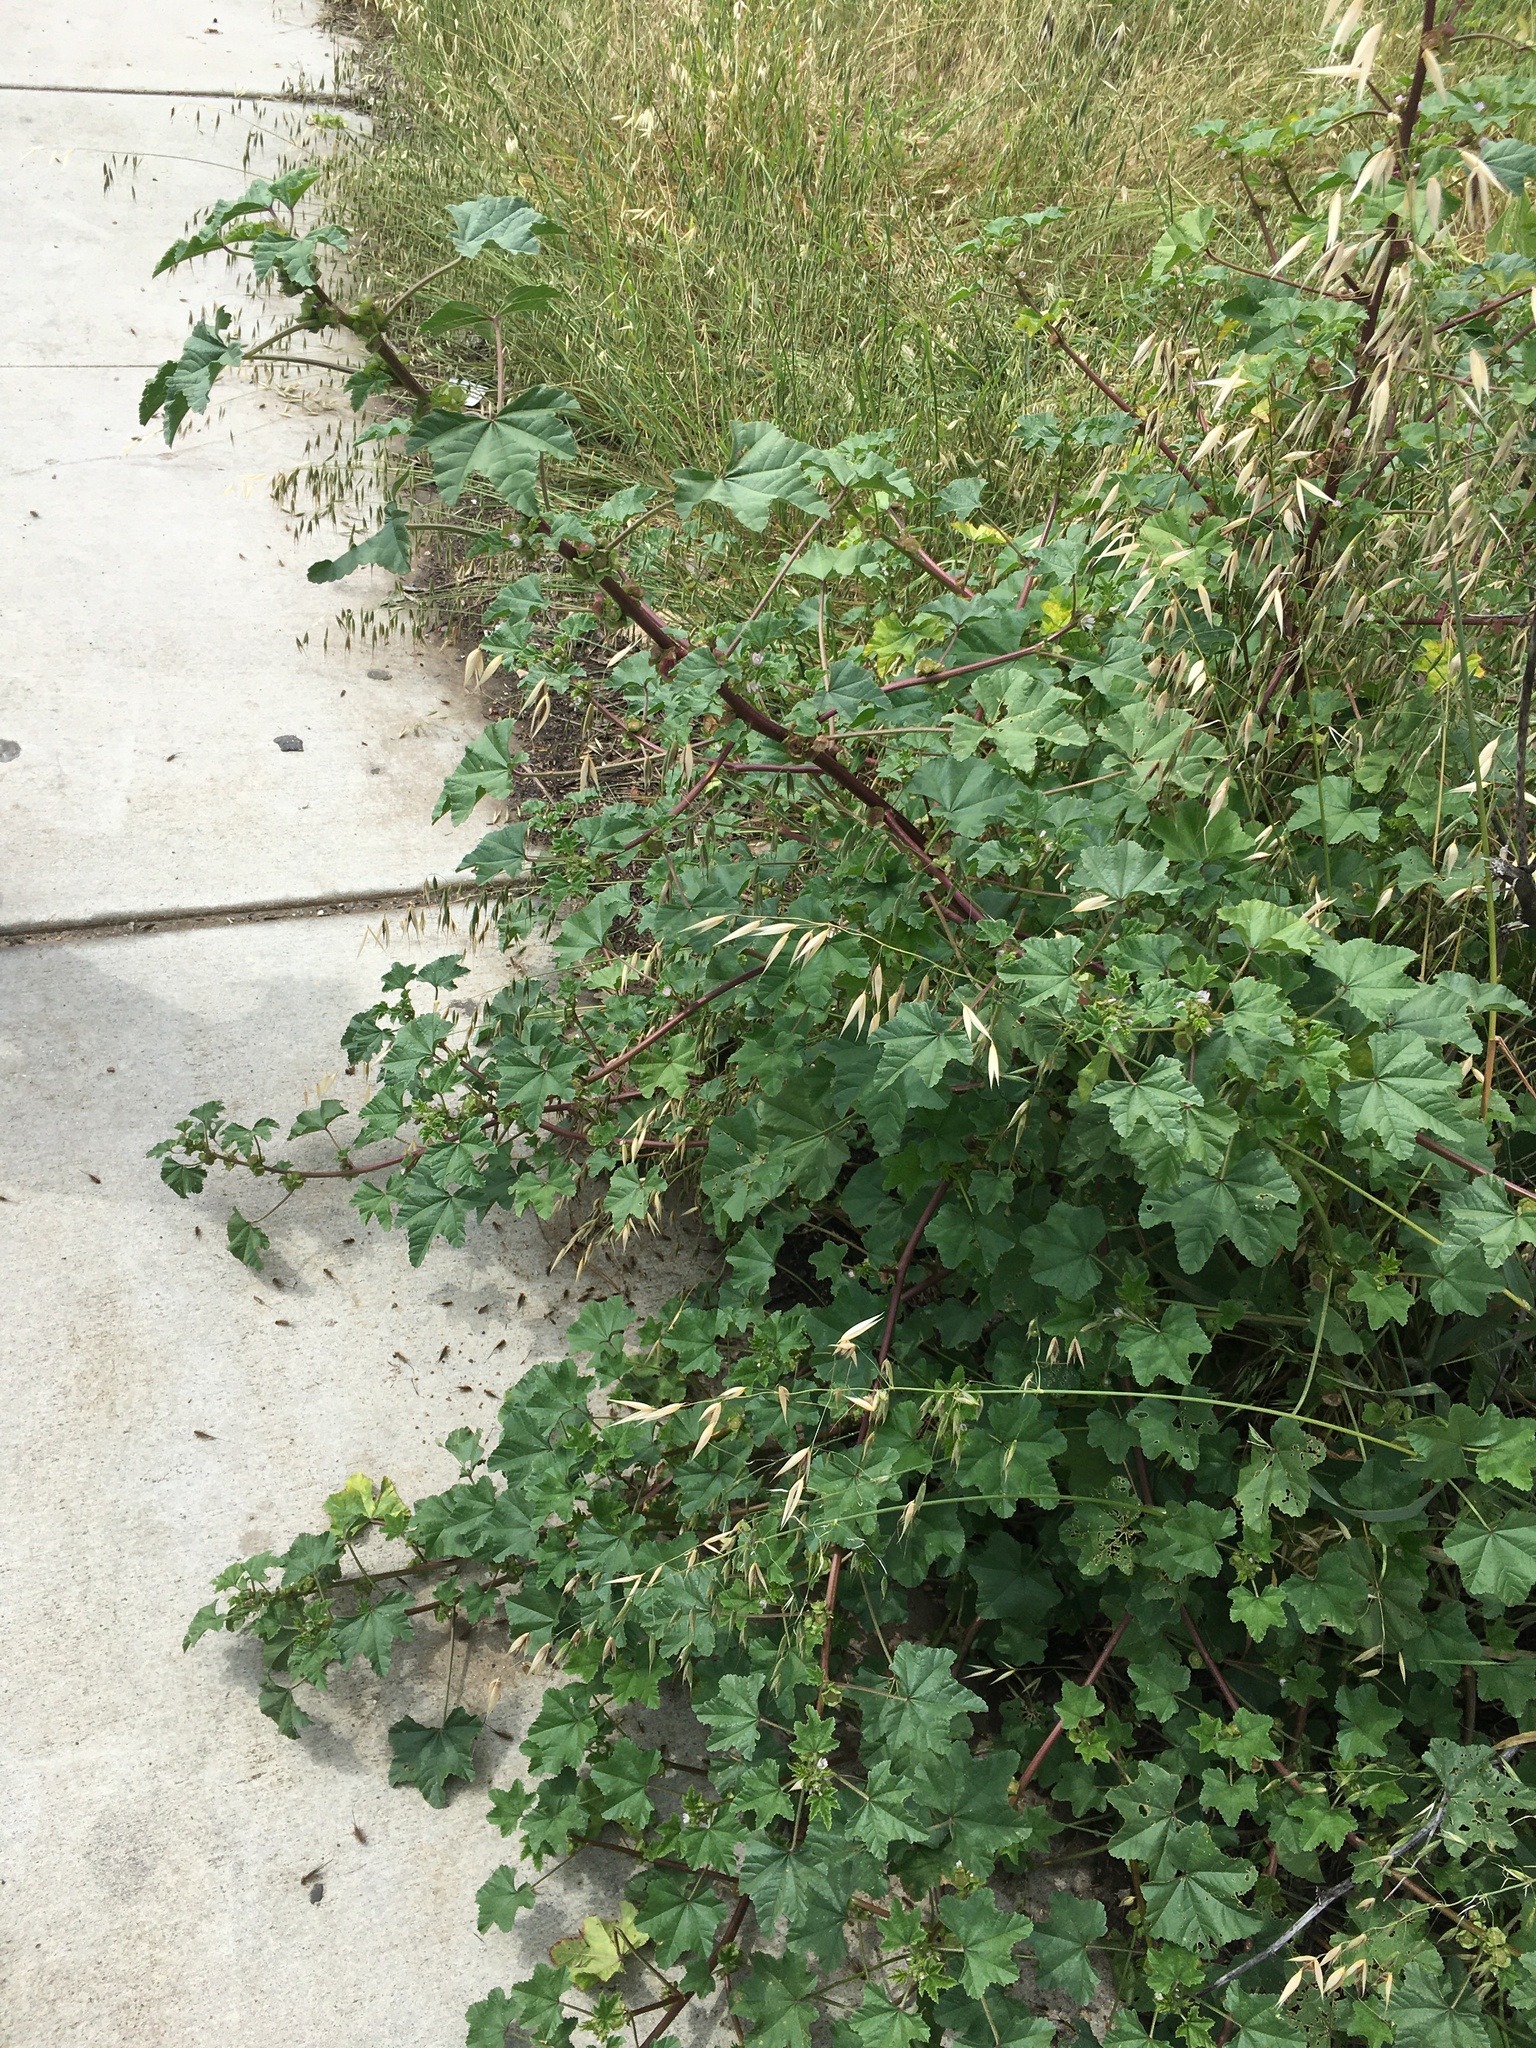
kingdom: Plantae
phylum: Tracheophyta
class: Magnoliopsida
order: Malvales
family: Malvaceae
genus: Malva
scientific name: Malva parviflora
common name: Least mallow
